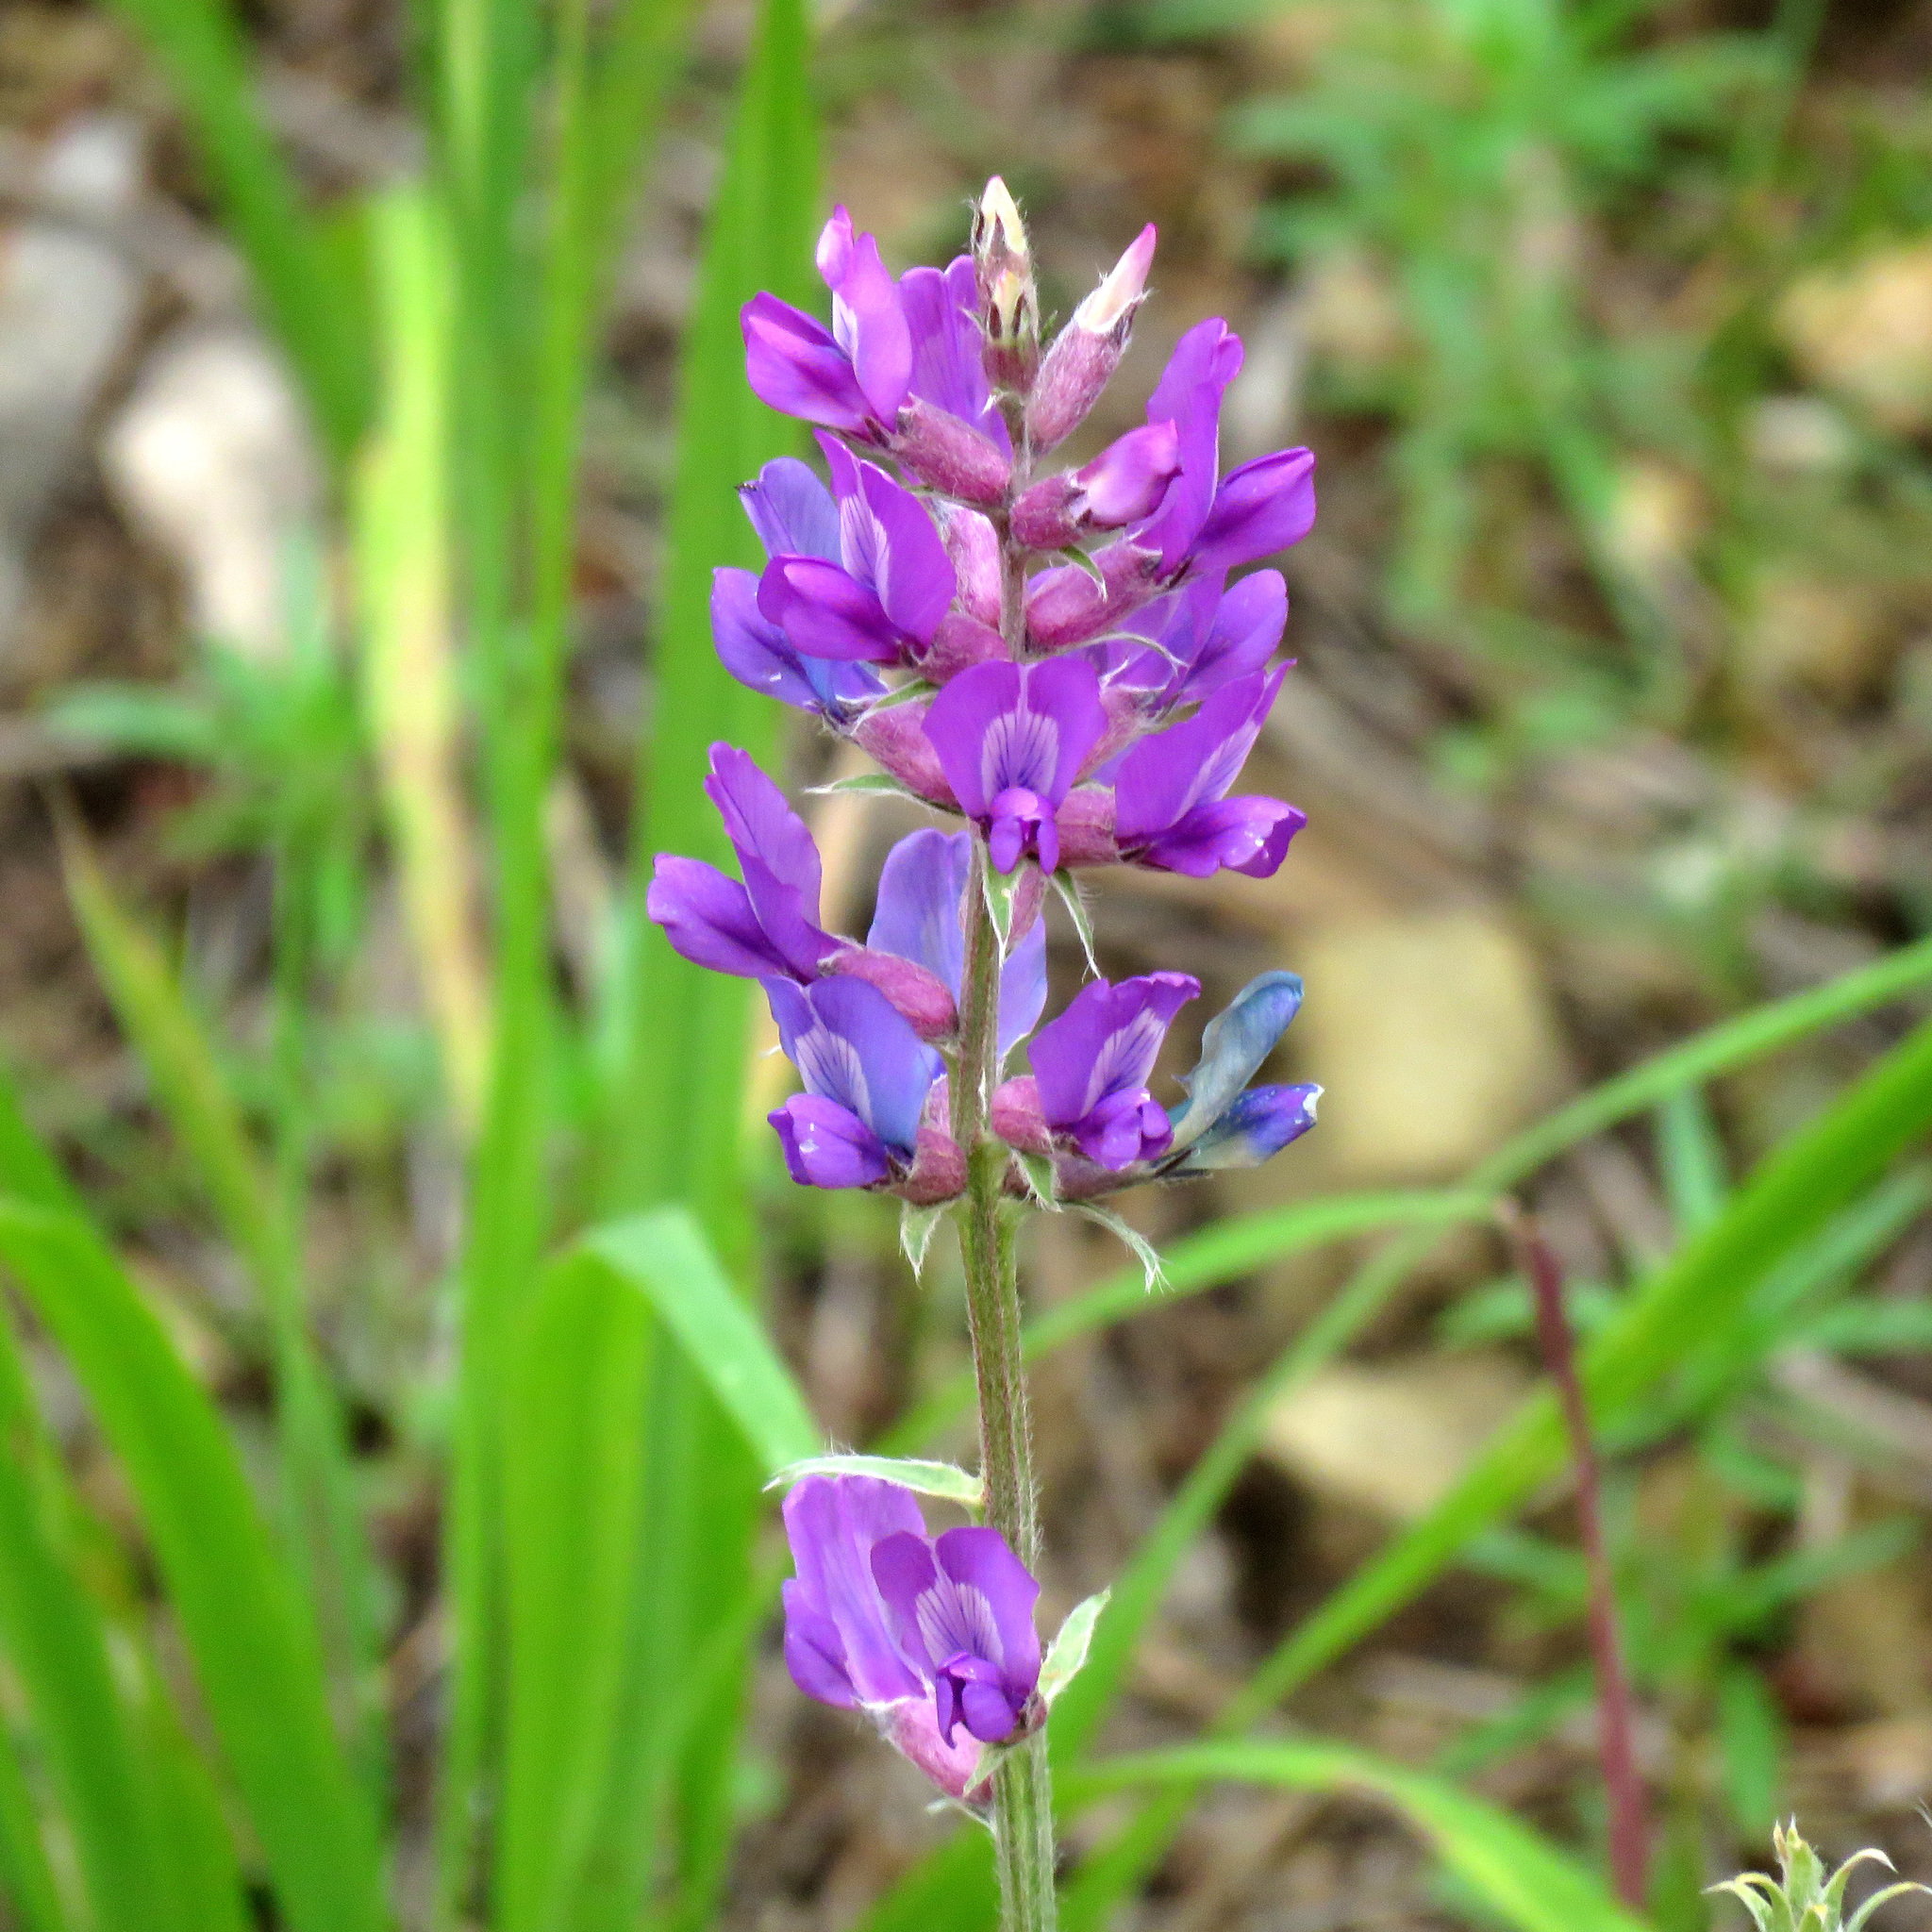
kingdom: Plantae
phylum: Tracheophyta
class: Magnoliopsida
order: Fabales
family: Fabaceae
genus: Oxytropis
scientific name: Oxytropis lambertii
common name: Purple locoweed
